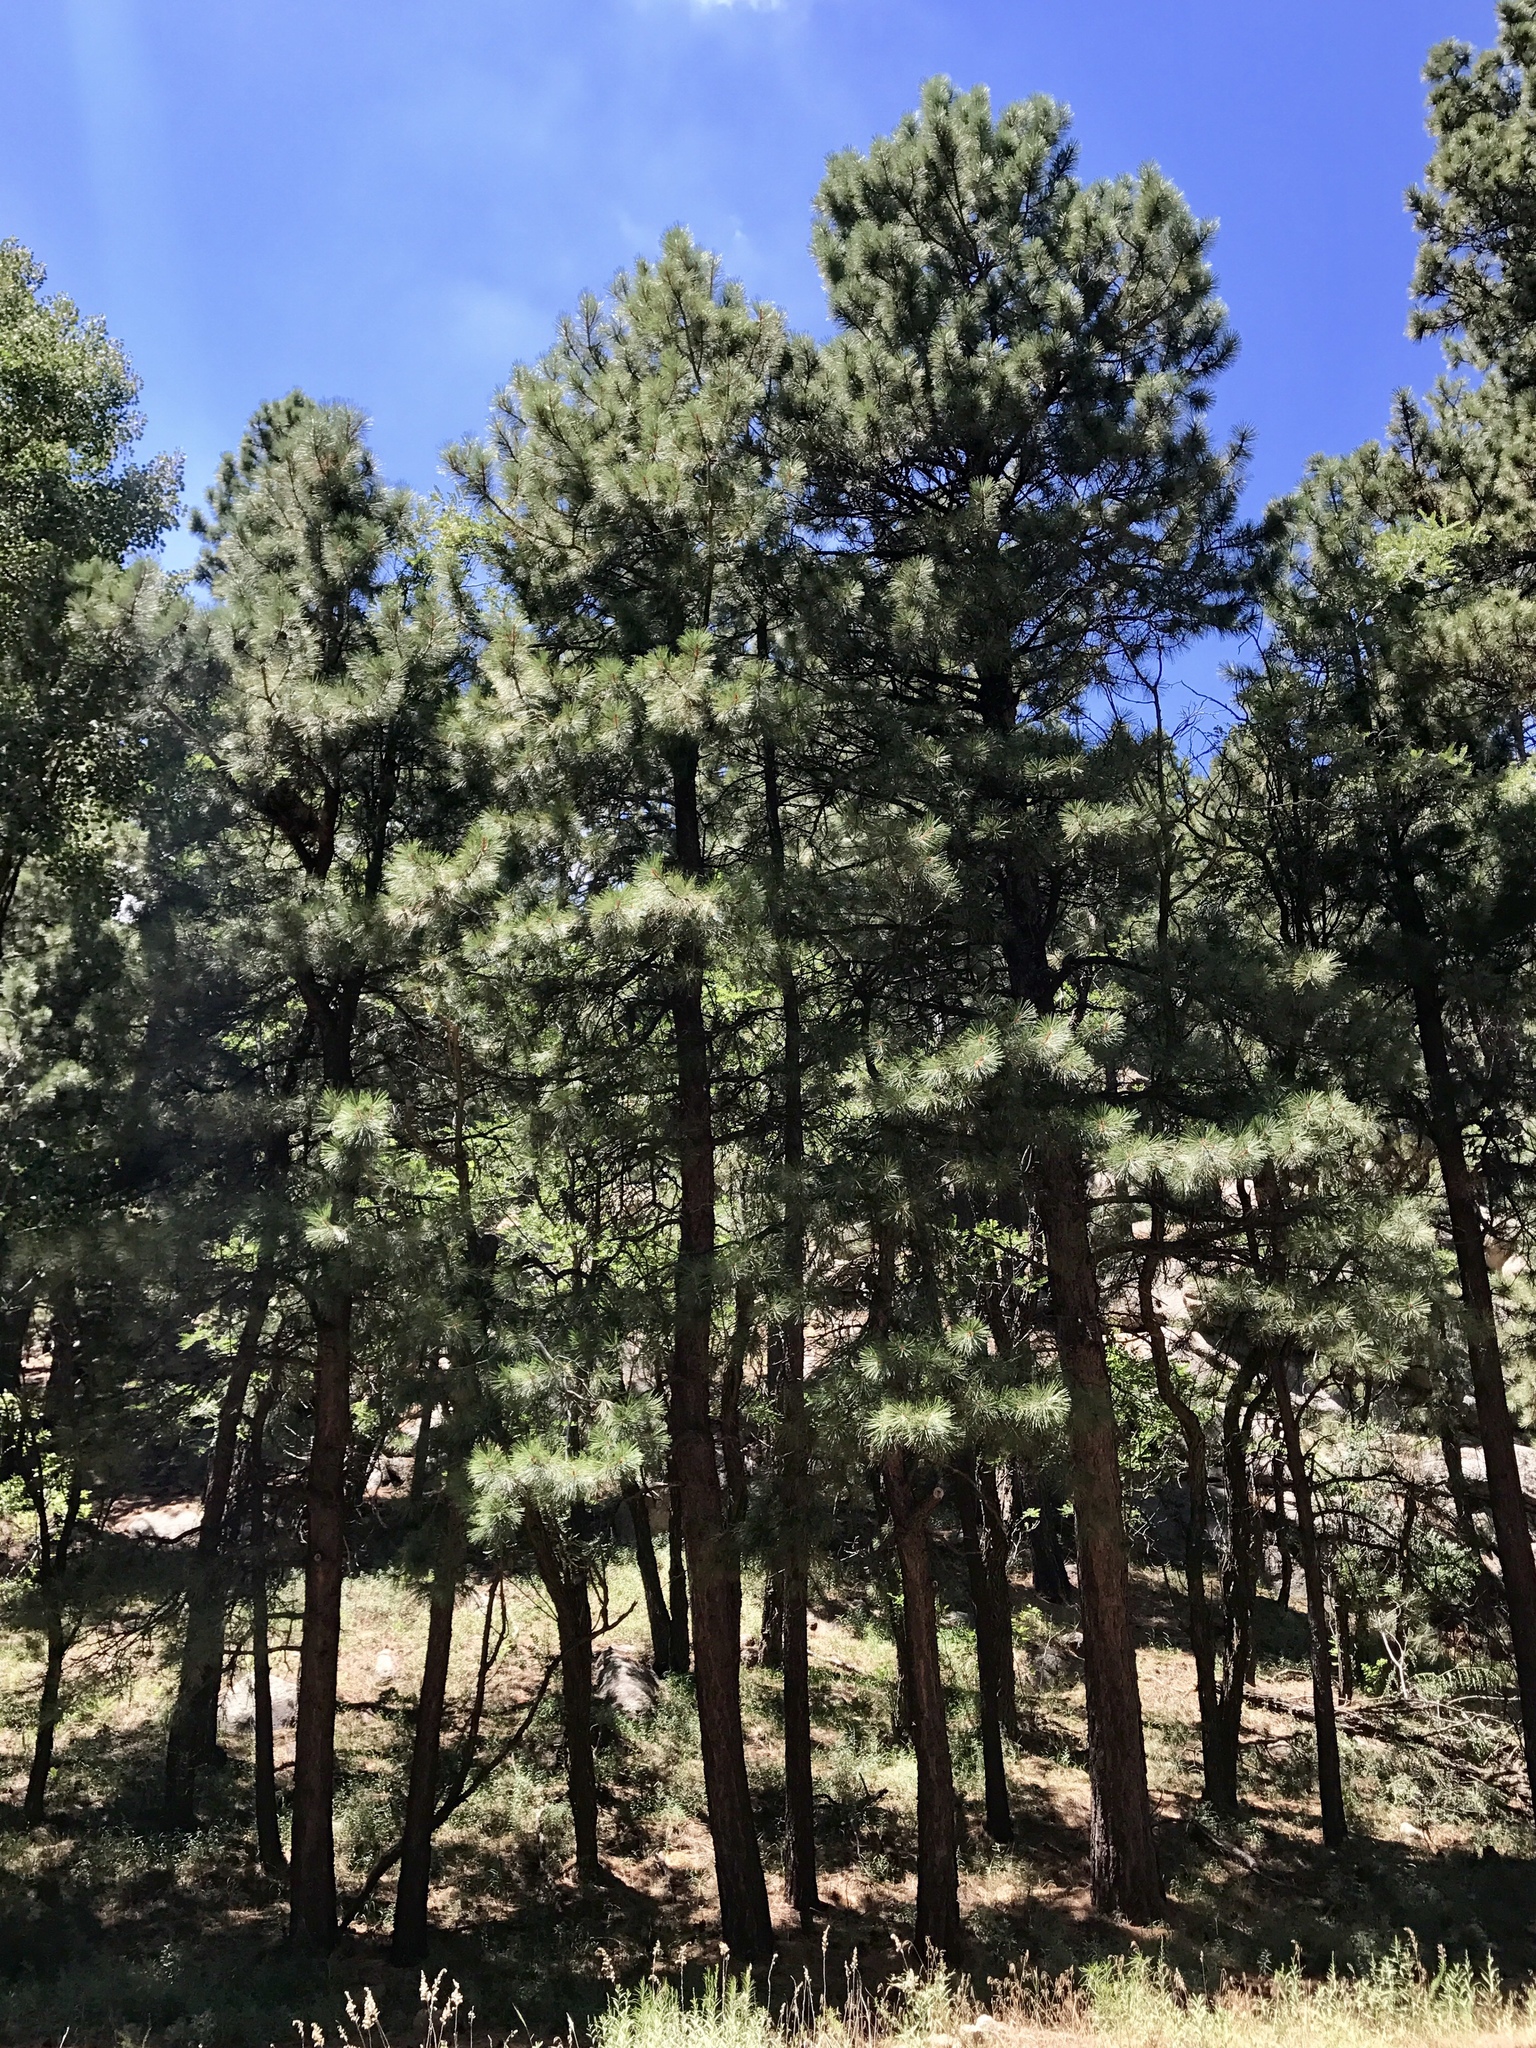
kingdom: Plantae
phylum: Tracheophyta
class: Pinopsida
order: Pinales
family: Pinaceae
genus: Pinus
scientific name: Pinus ponderosa
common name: Western yellow-pine
